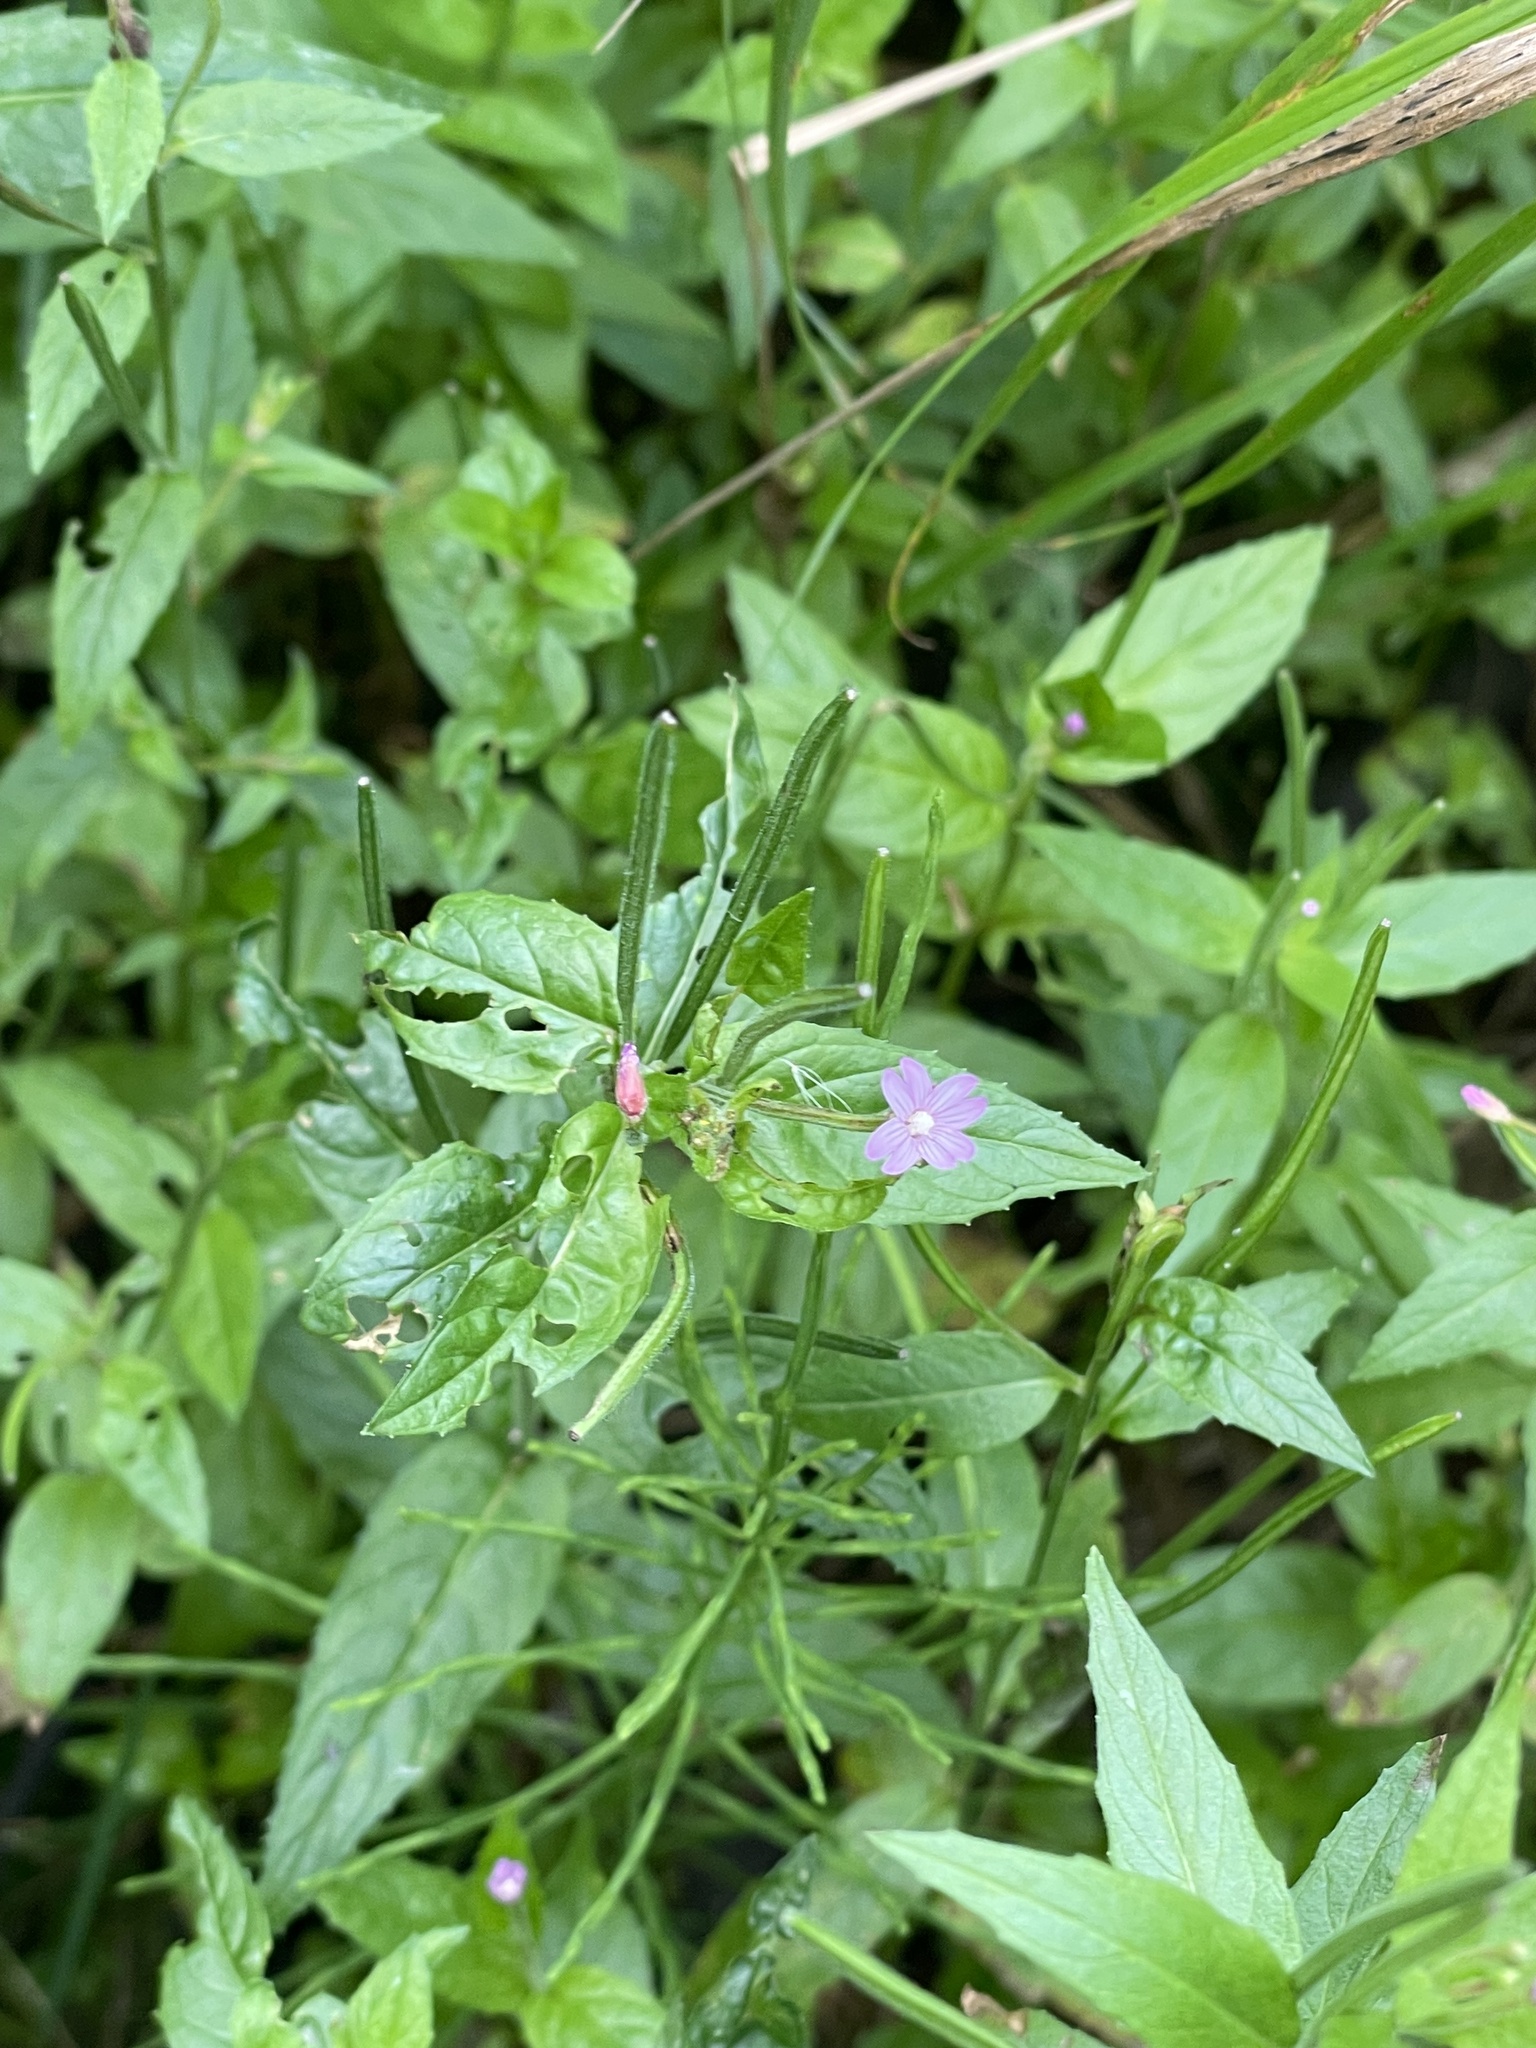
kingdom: Plantae
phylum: Tracheophyta
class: Magnoliopsida
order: Myrtales
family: Onagraceae
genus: Epilobium
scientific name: Epilobium ciliatum
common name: American willowherb
